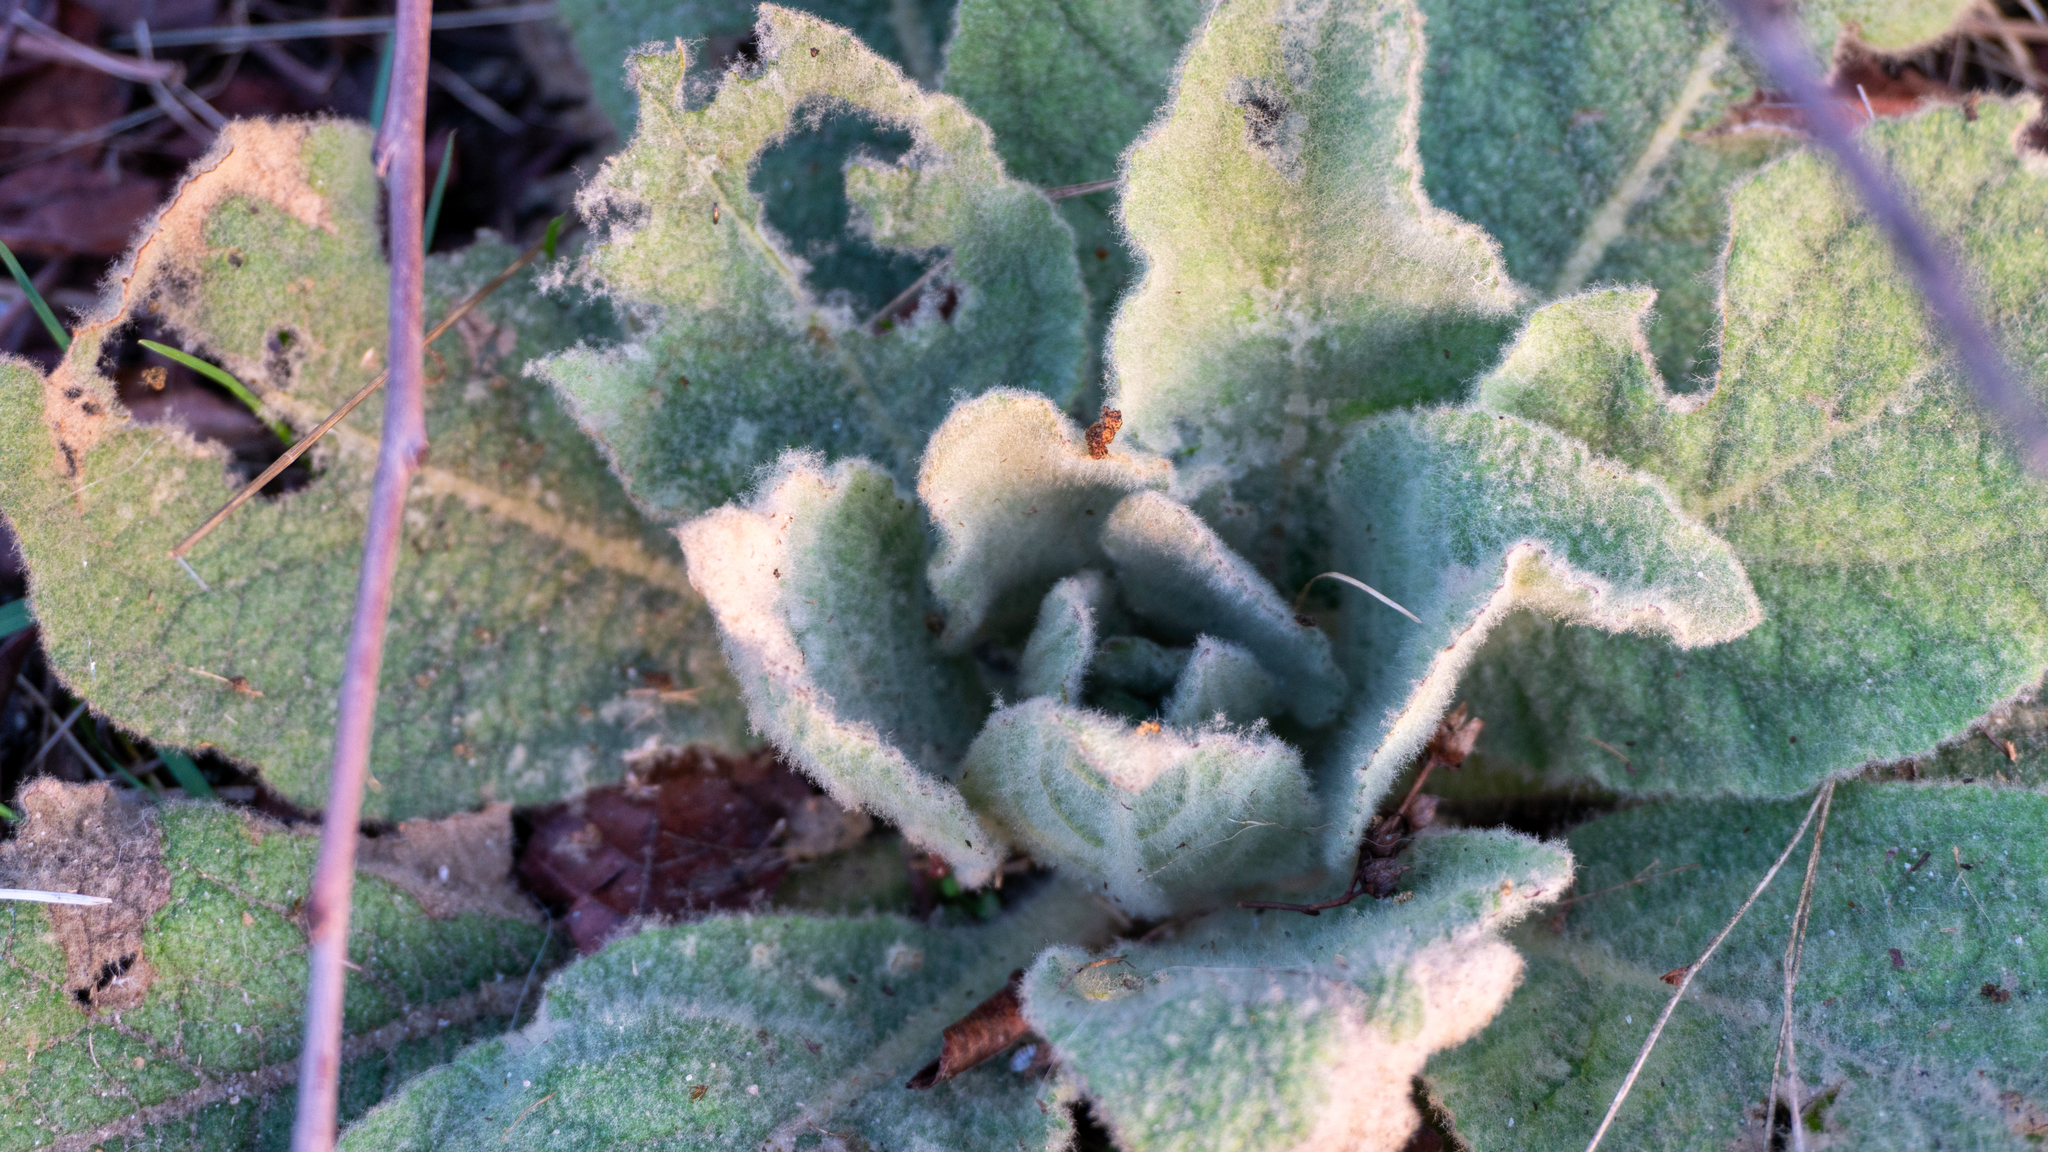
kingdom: Plantae
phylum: Tracheophyta
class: Magnoliopsida
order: Lamiales
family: Scrophulariaceae
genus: Verbascum
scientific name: Verbascum thapsus
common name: Common mullein
